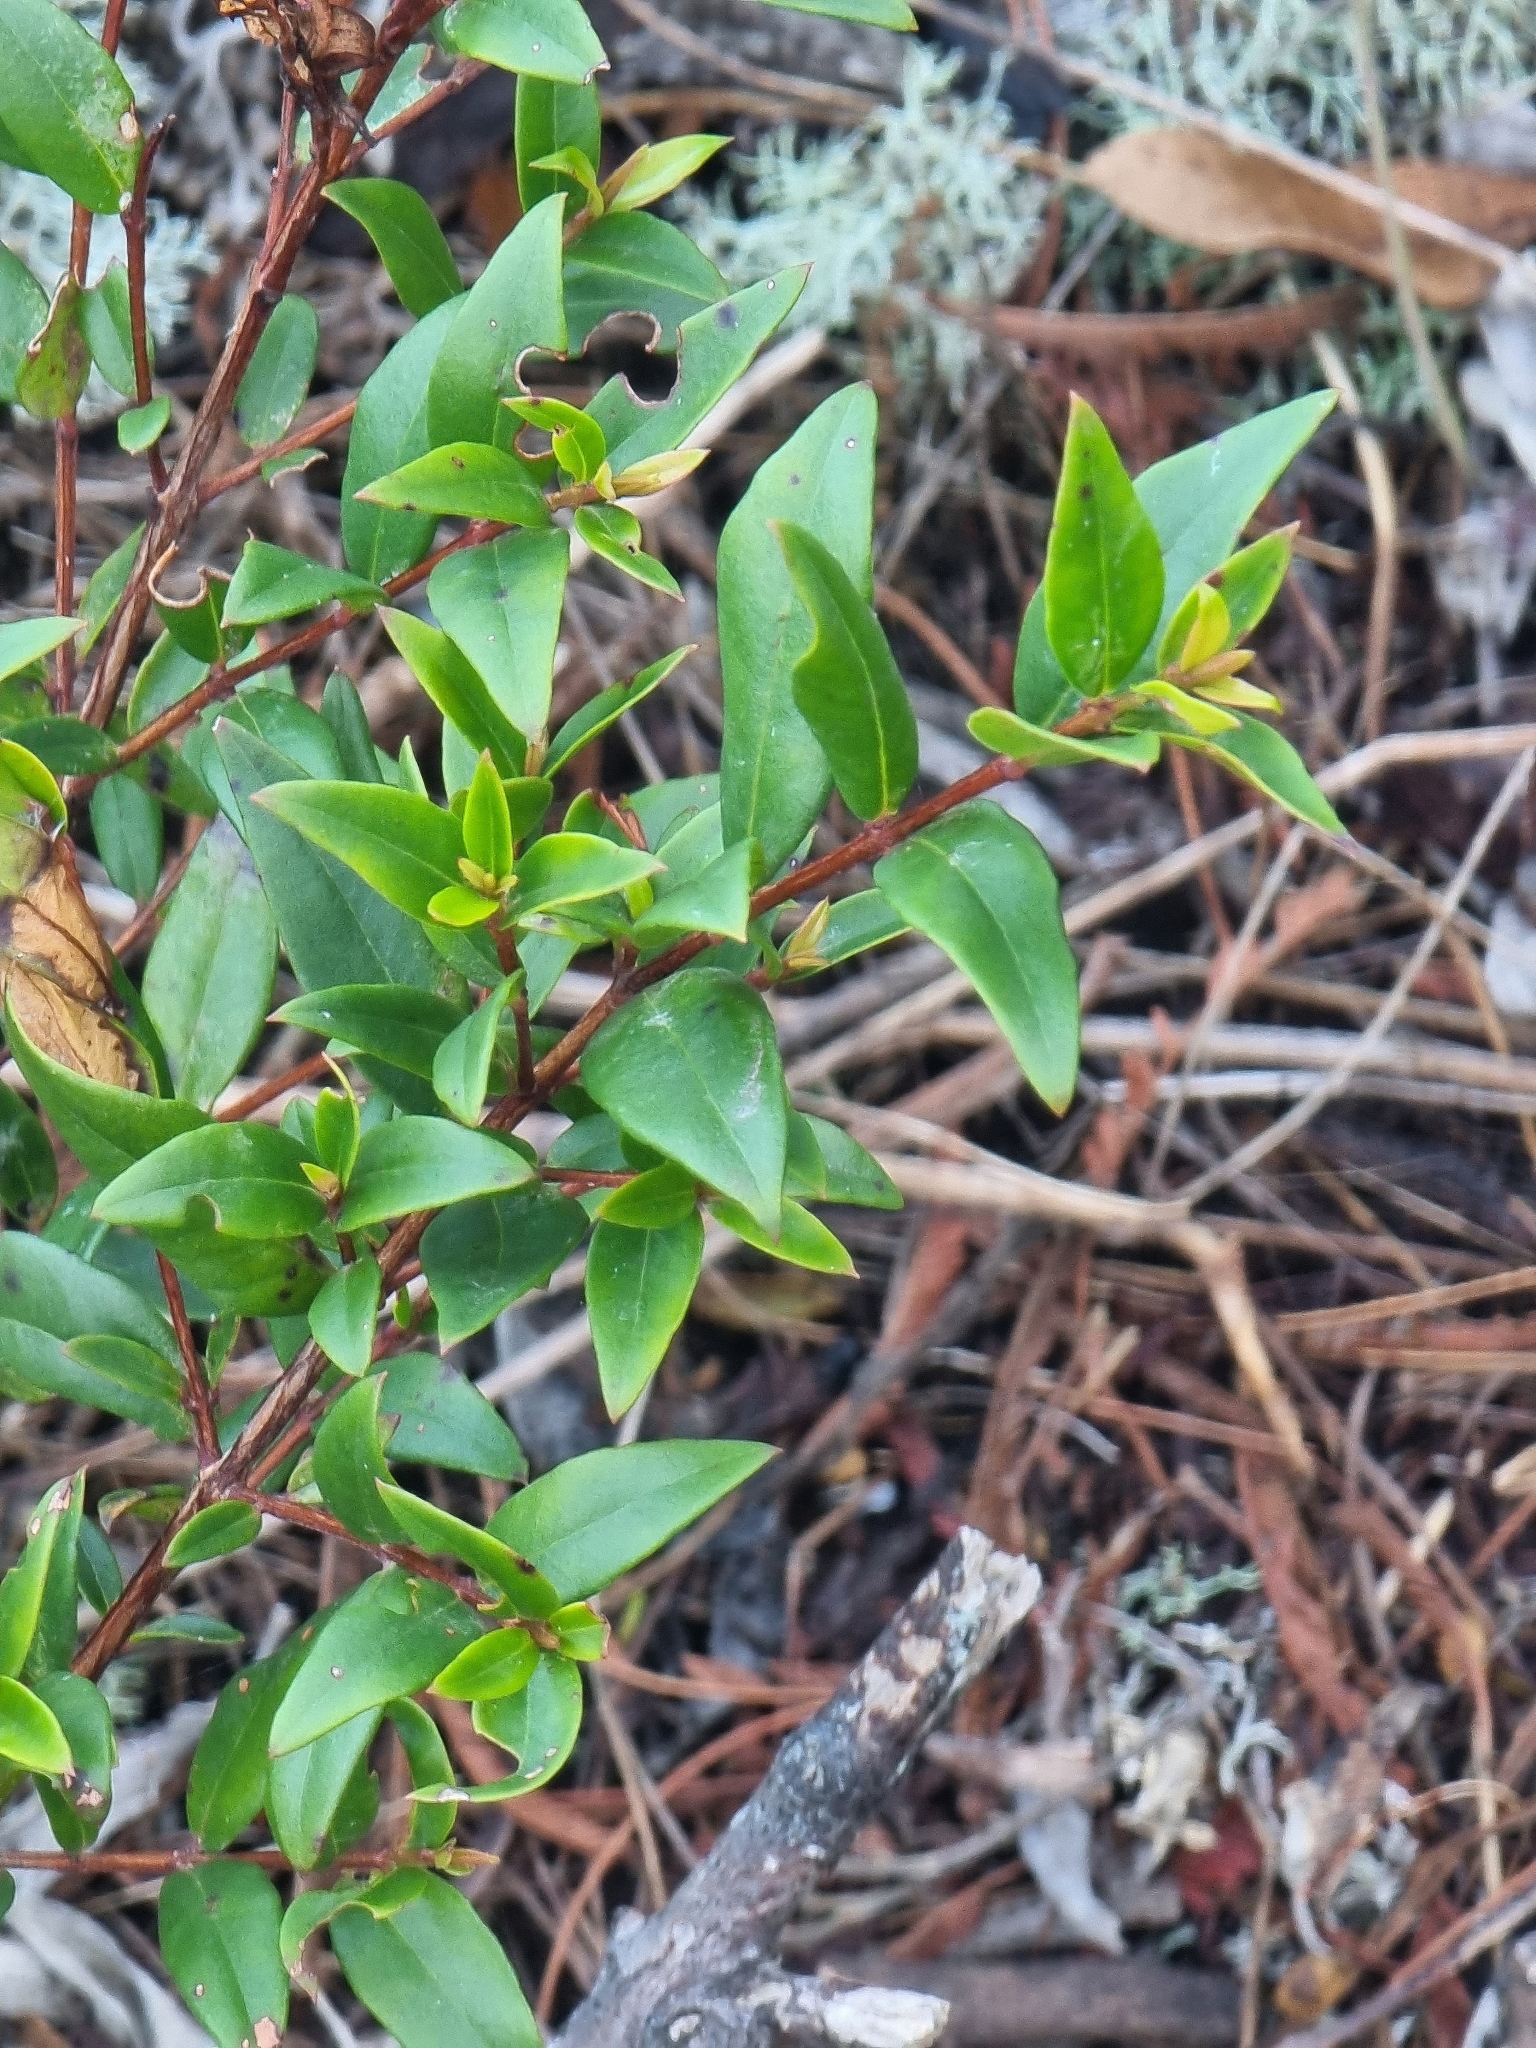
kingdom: Plantae
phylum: Tracheophyta
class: Magnoliopsida
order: Myrtales
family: Myrtaceae
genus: Myrtus
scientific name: Myrtus communis
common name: Myrtle
